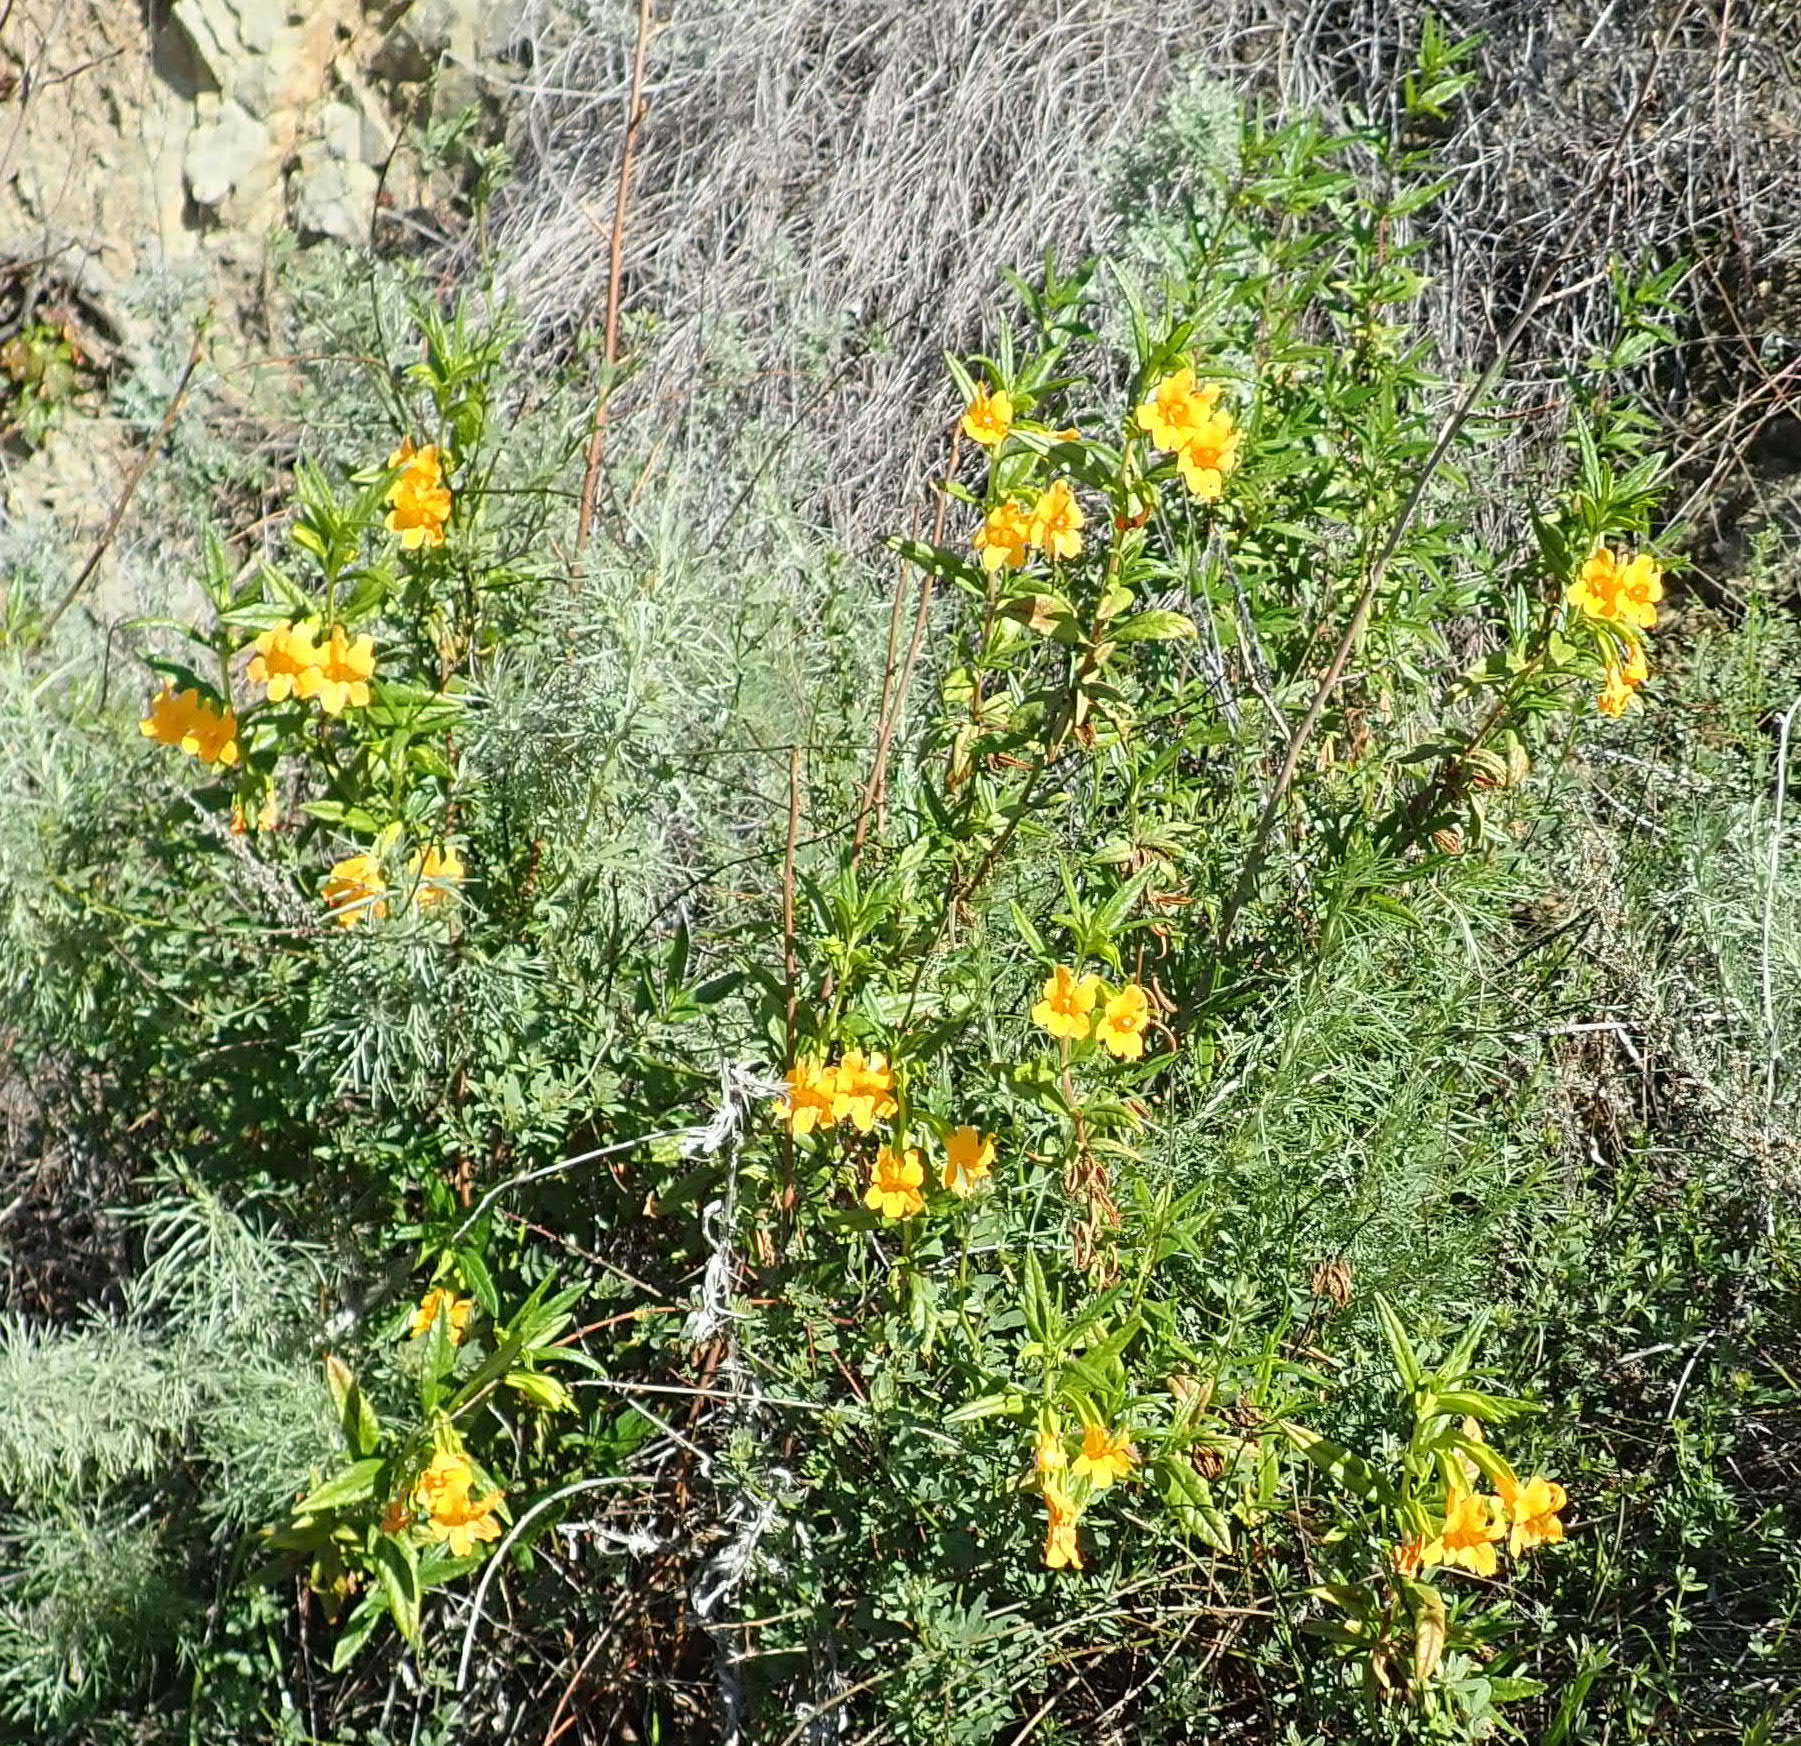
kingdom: Plantae
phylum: Tracheophyta
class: Magnoliopsida
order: Lamiales
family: Phrymaceae
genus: Diplacus
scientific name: Diplacus aurantiacus
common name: Bush monkey-flower
